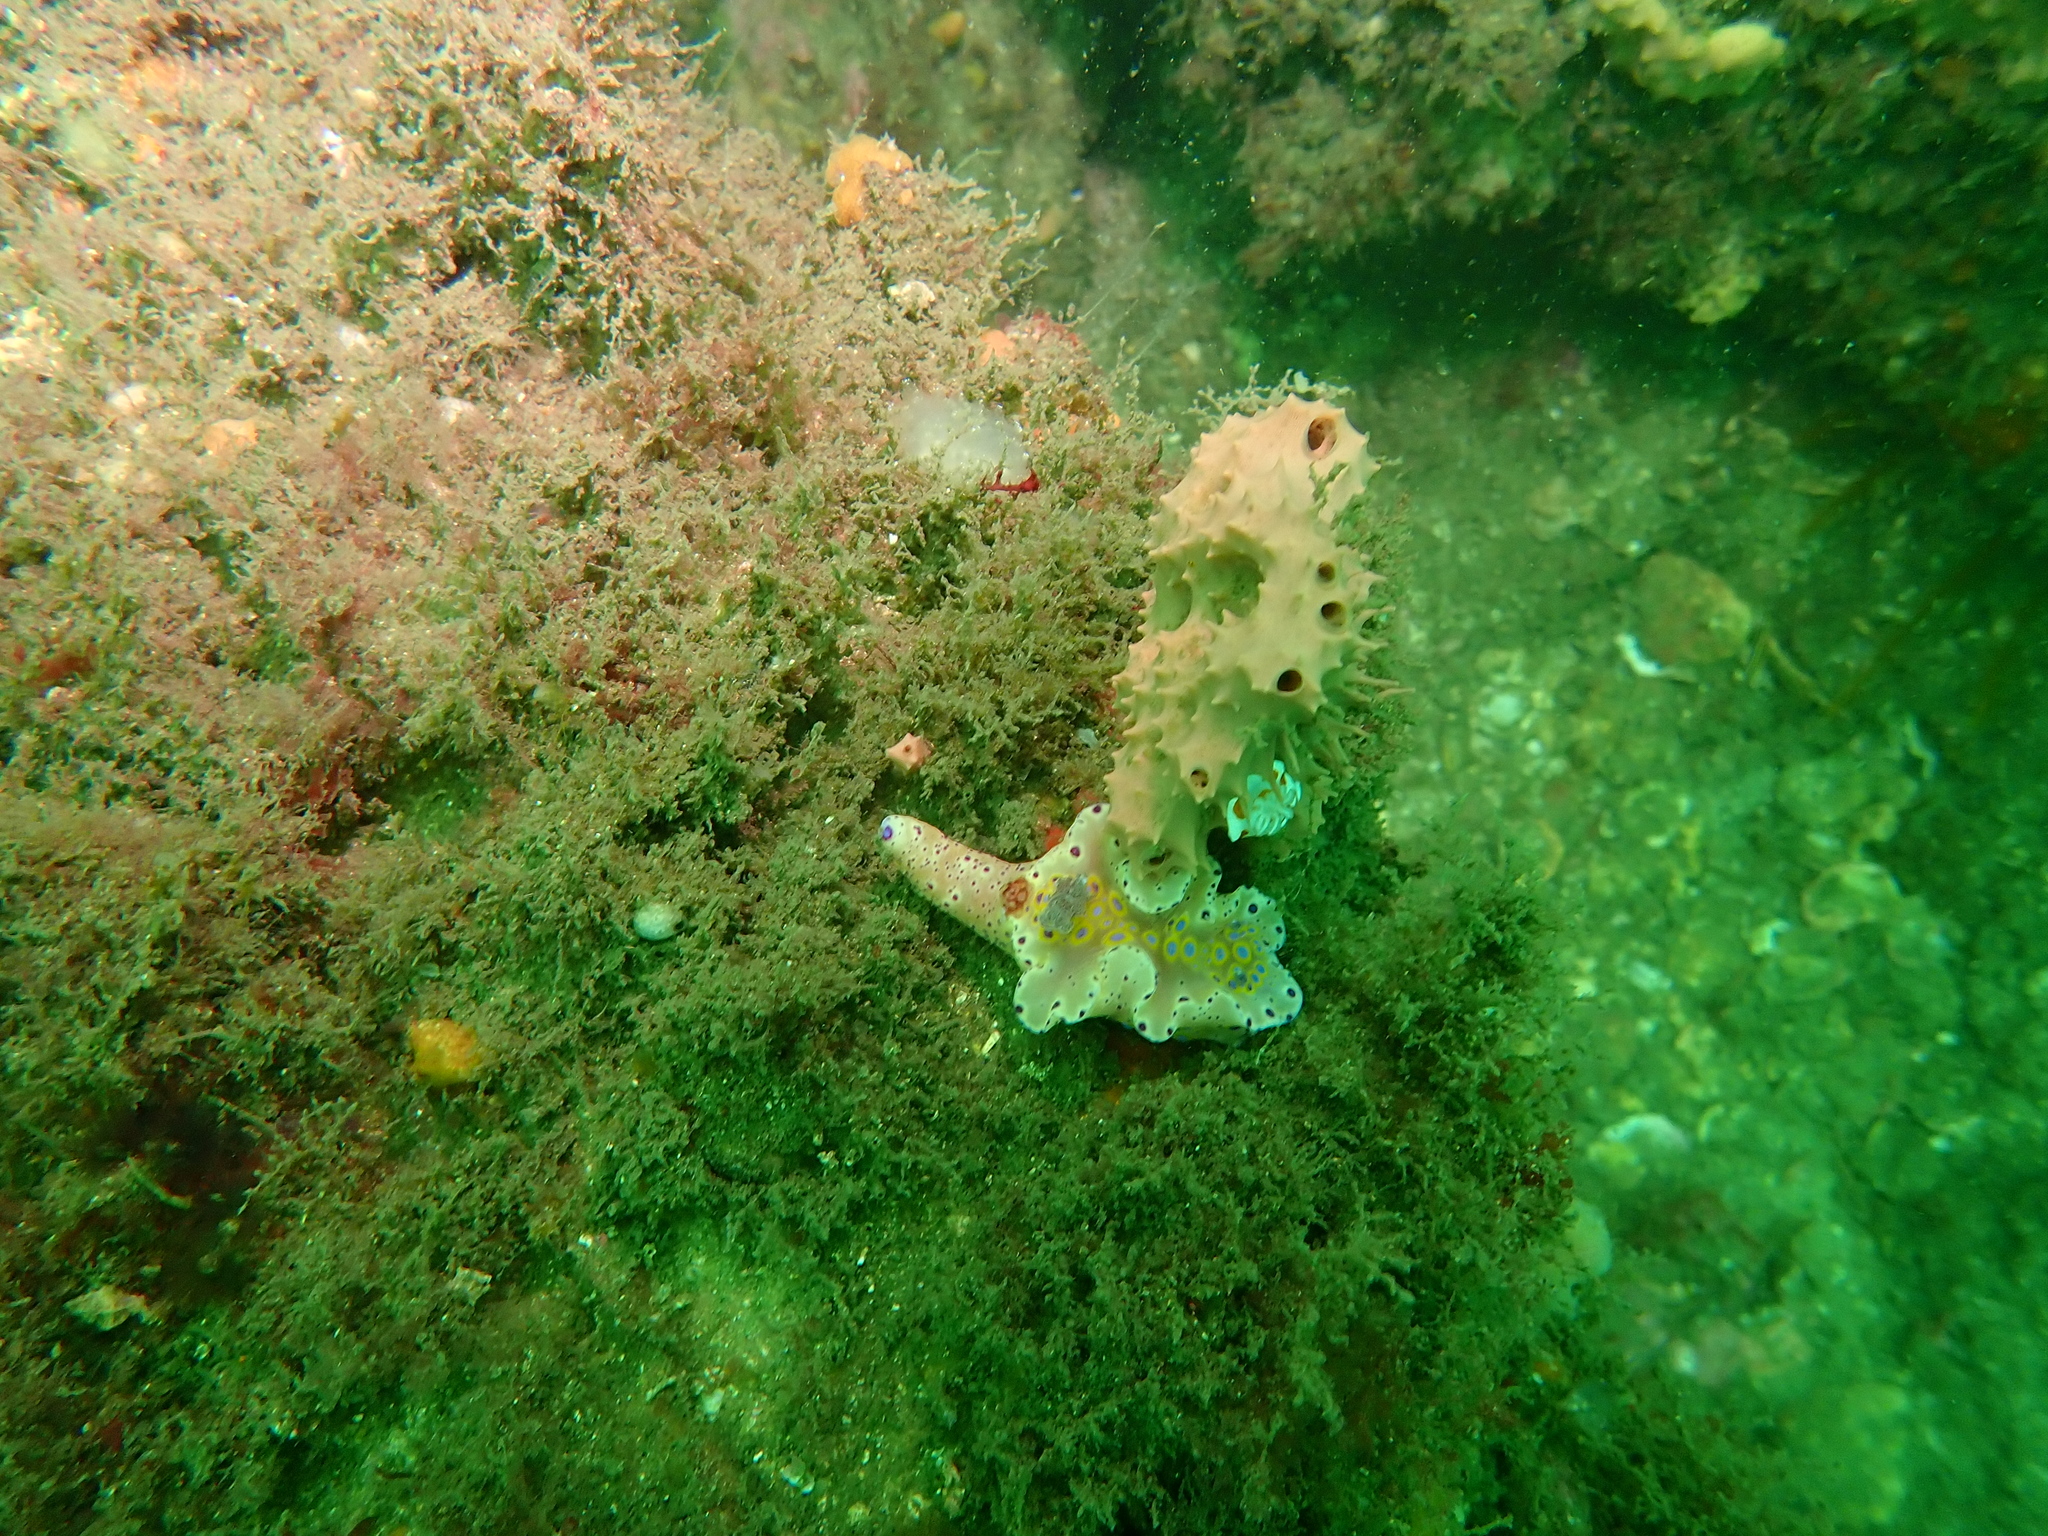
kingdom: Animalia
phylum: Mollusca
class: Gastropoda
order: Nudibranchia
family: Chromodorididae
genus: Ceratosoma
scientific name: Ceratosoma brevicaudatum
